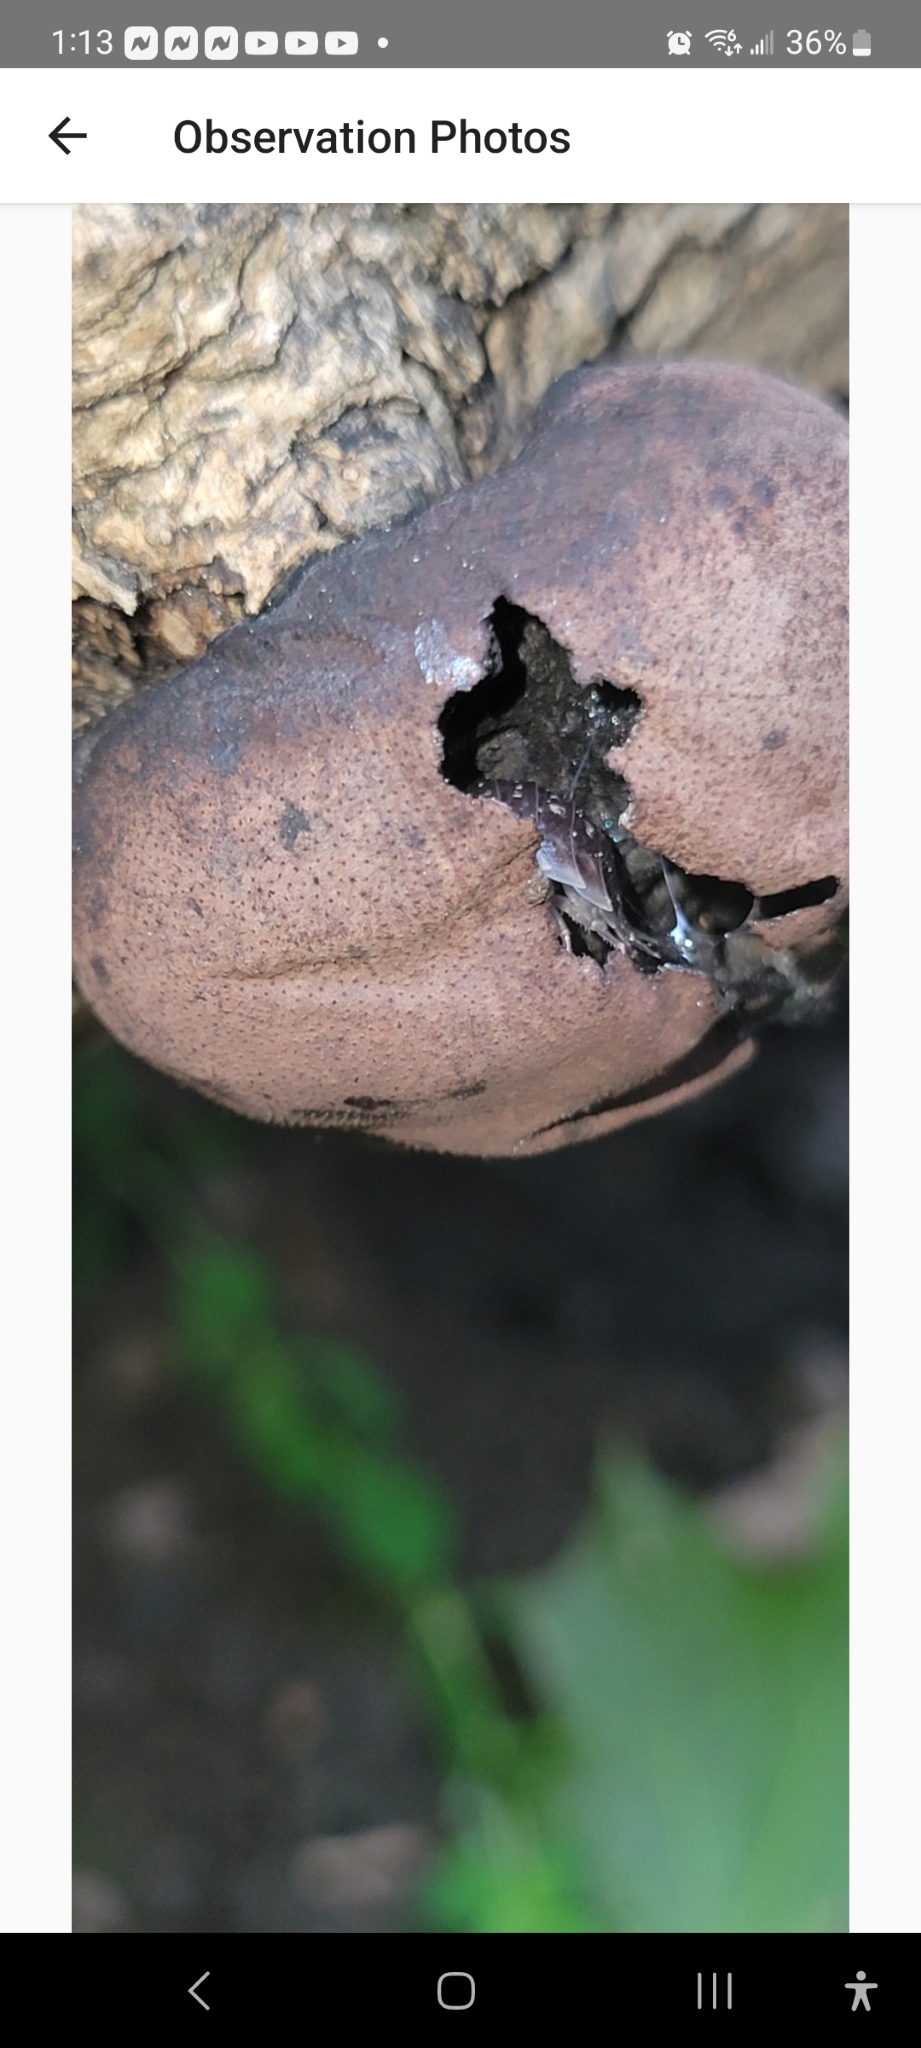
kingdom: Animalia
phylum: Arthropoda
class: Malacostraca
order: Isopoda
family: Oniscidae
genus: Oniscus
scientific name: Oniscus asellus
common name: Common shiny woodlouse
